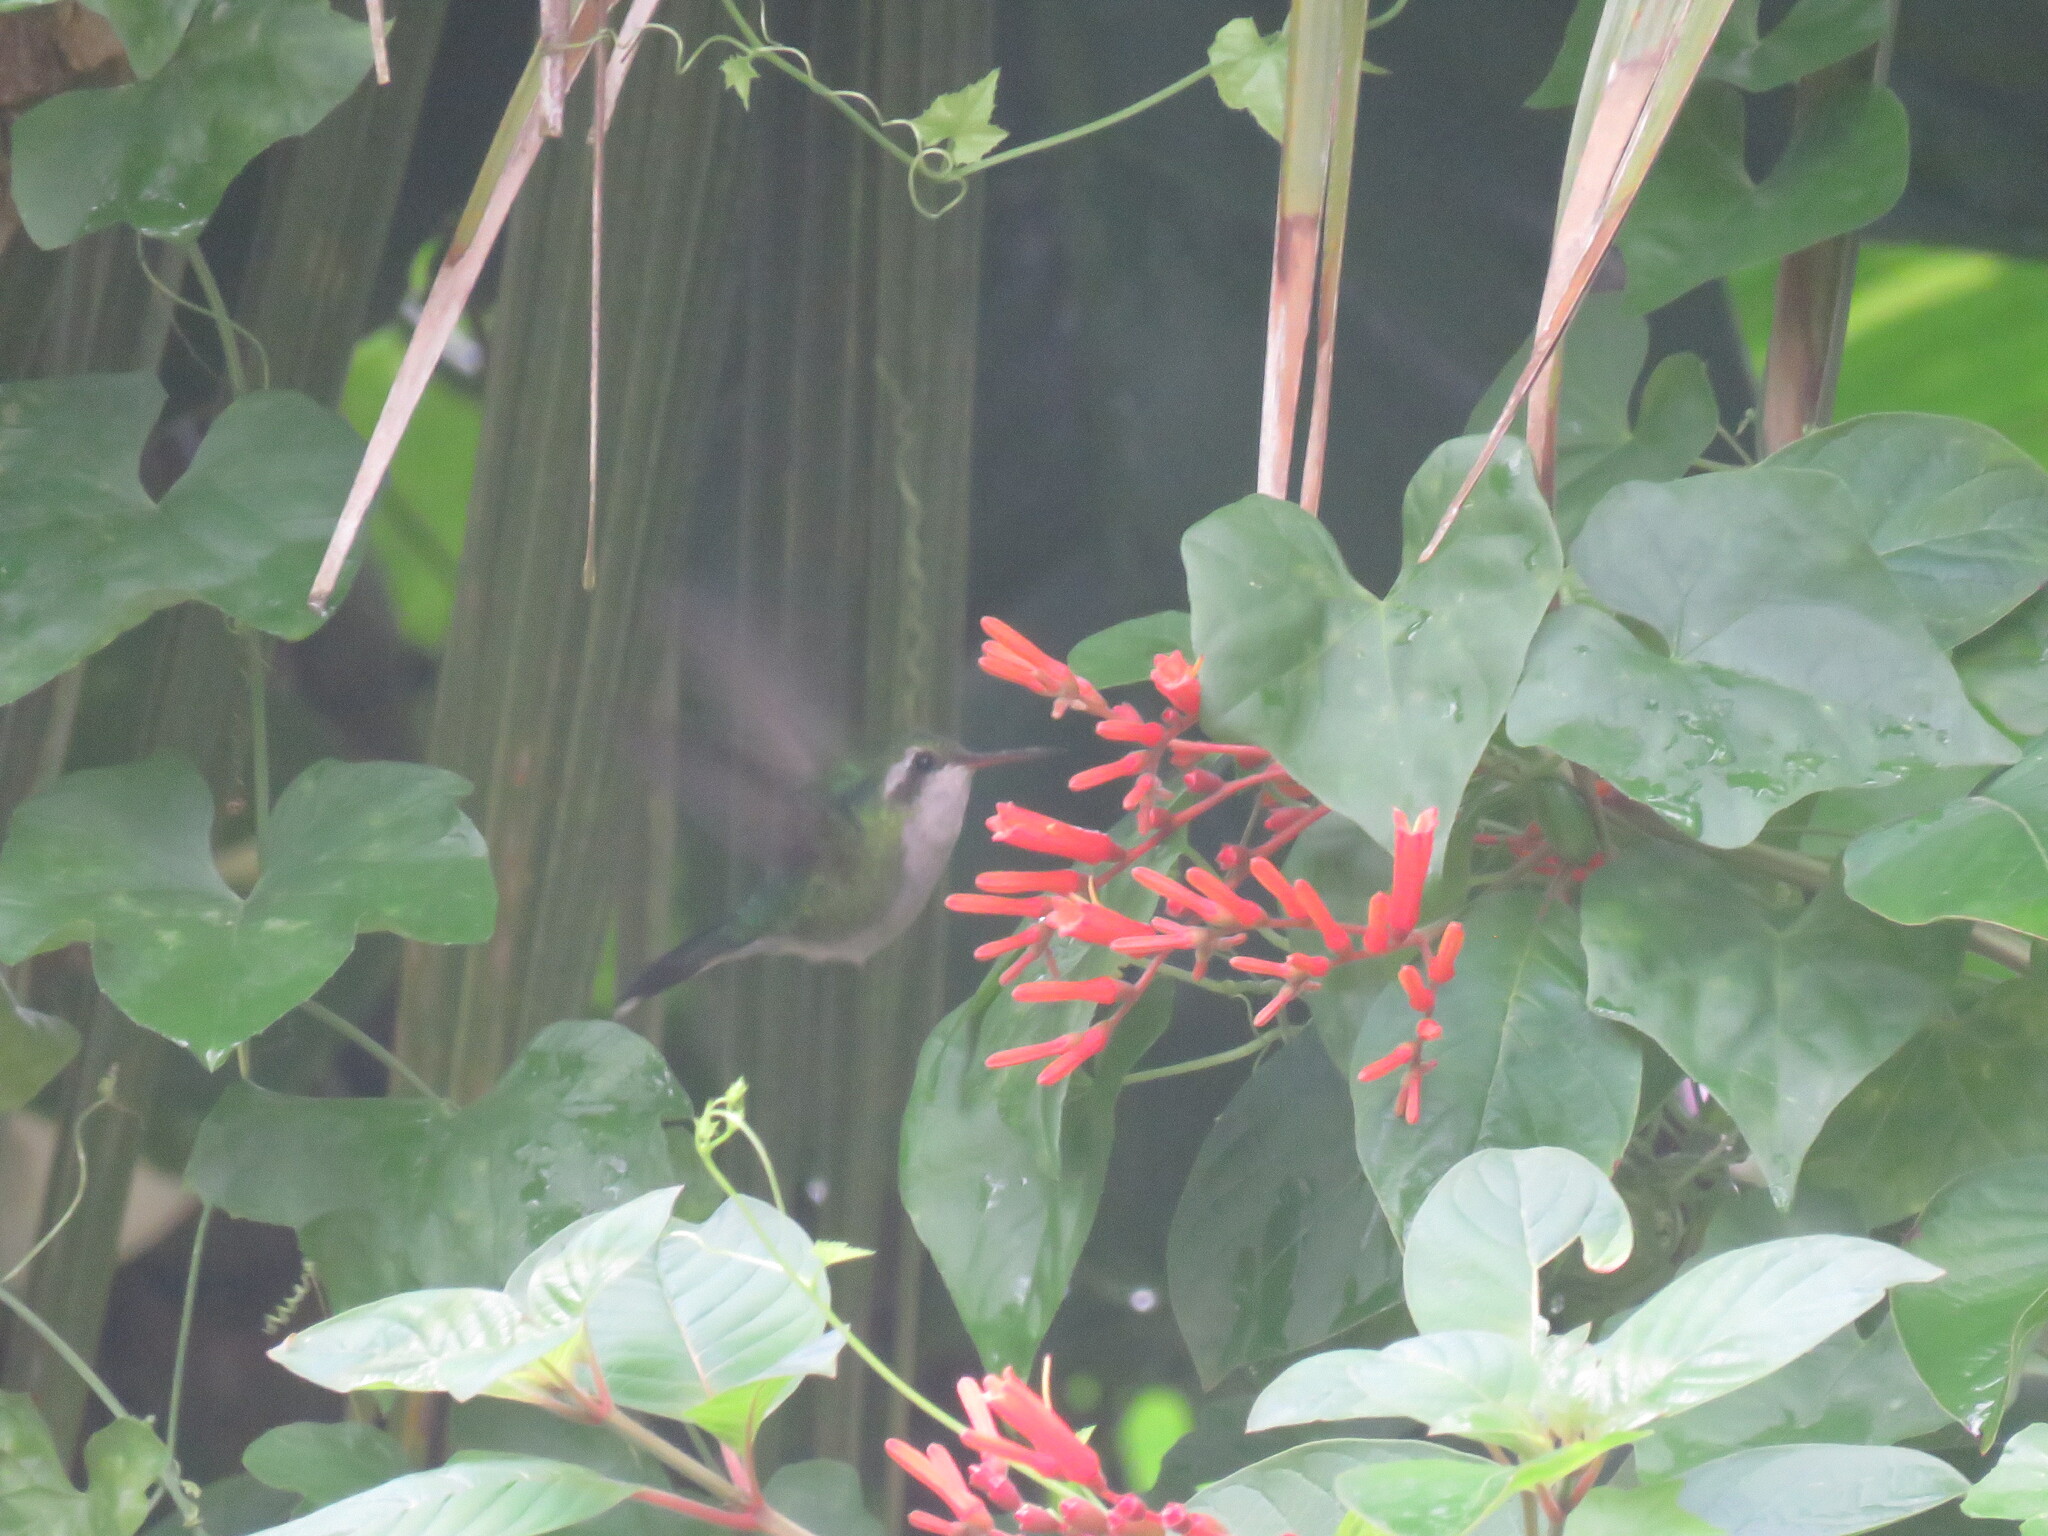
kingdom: Animalia
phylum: Chordata
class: Aves
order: Apodiformes
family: Trochilidae
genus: Cynanthus
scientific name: Cynanthus forficatus
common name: Cozumel emerald
